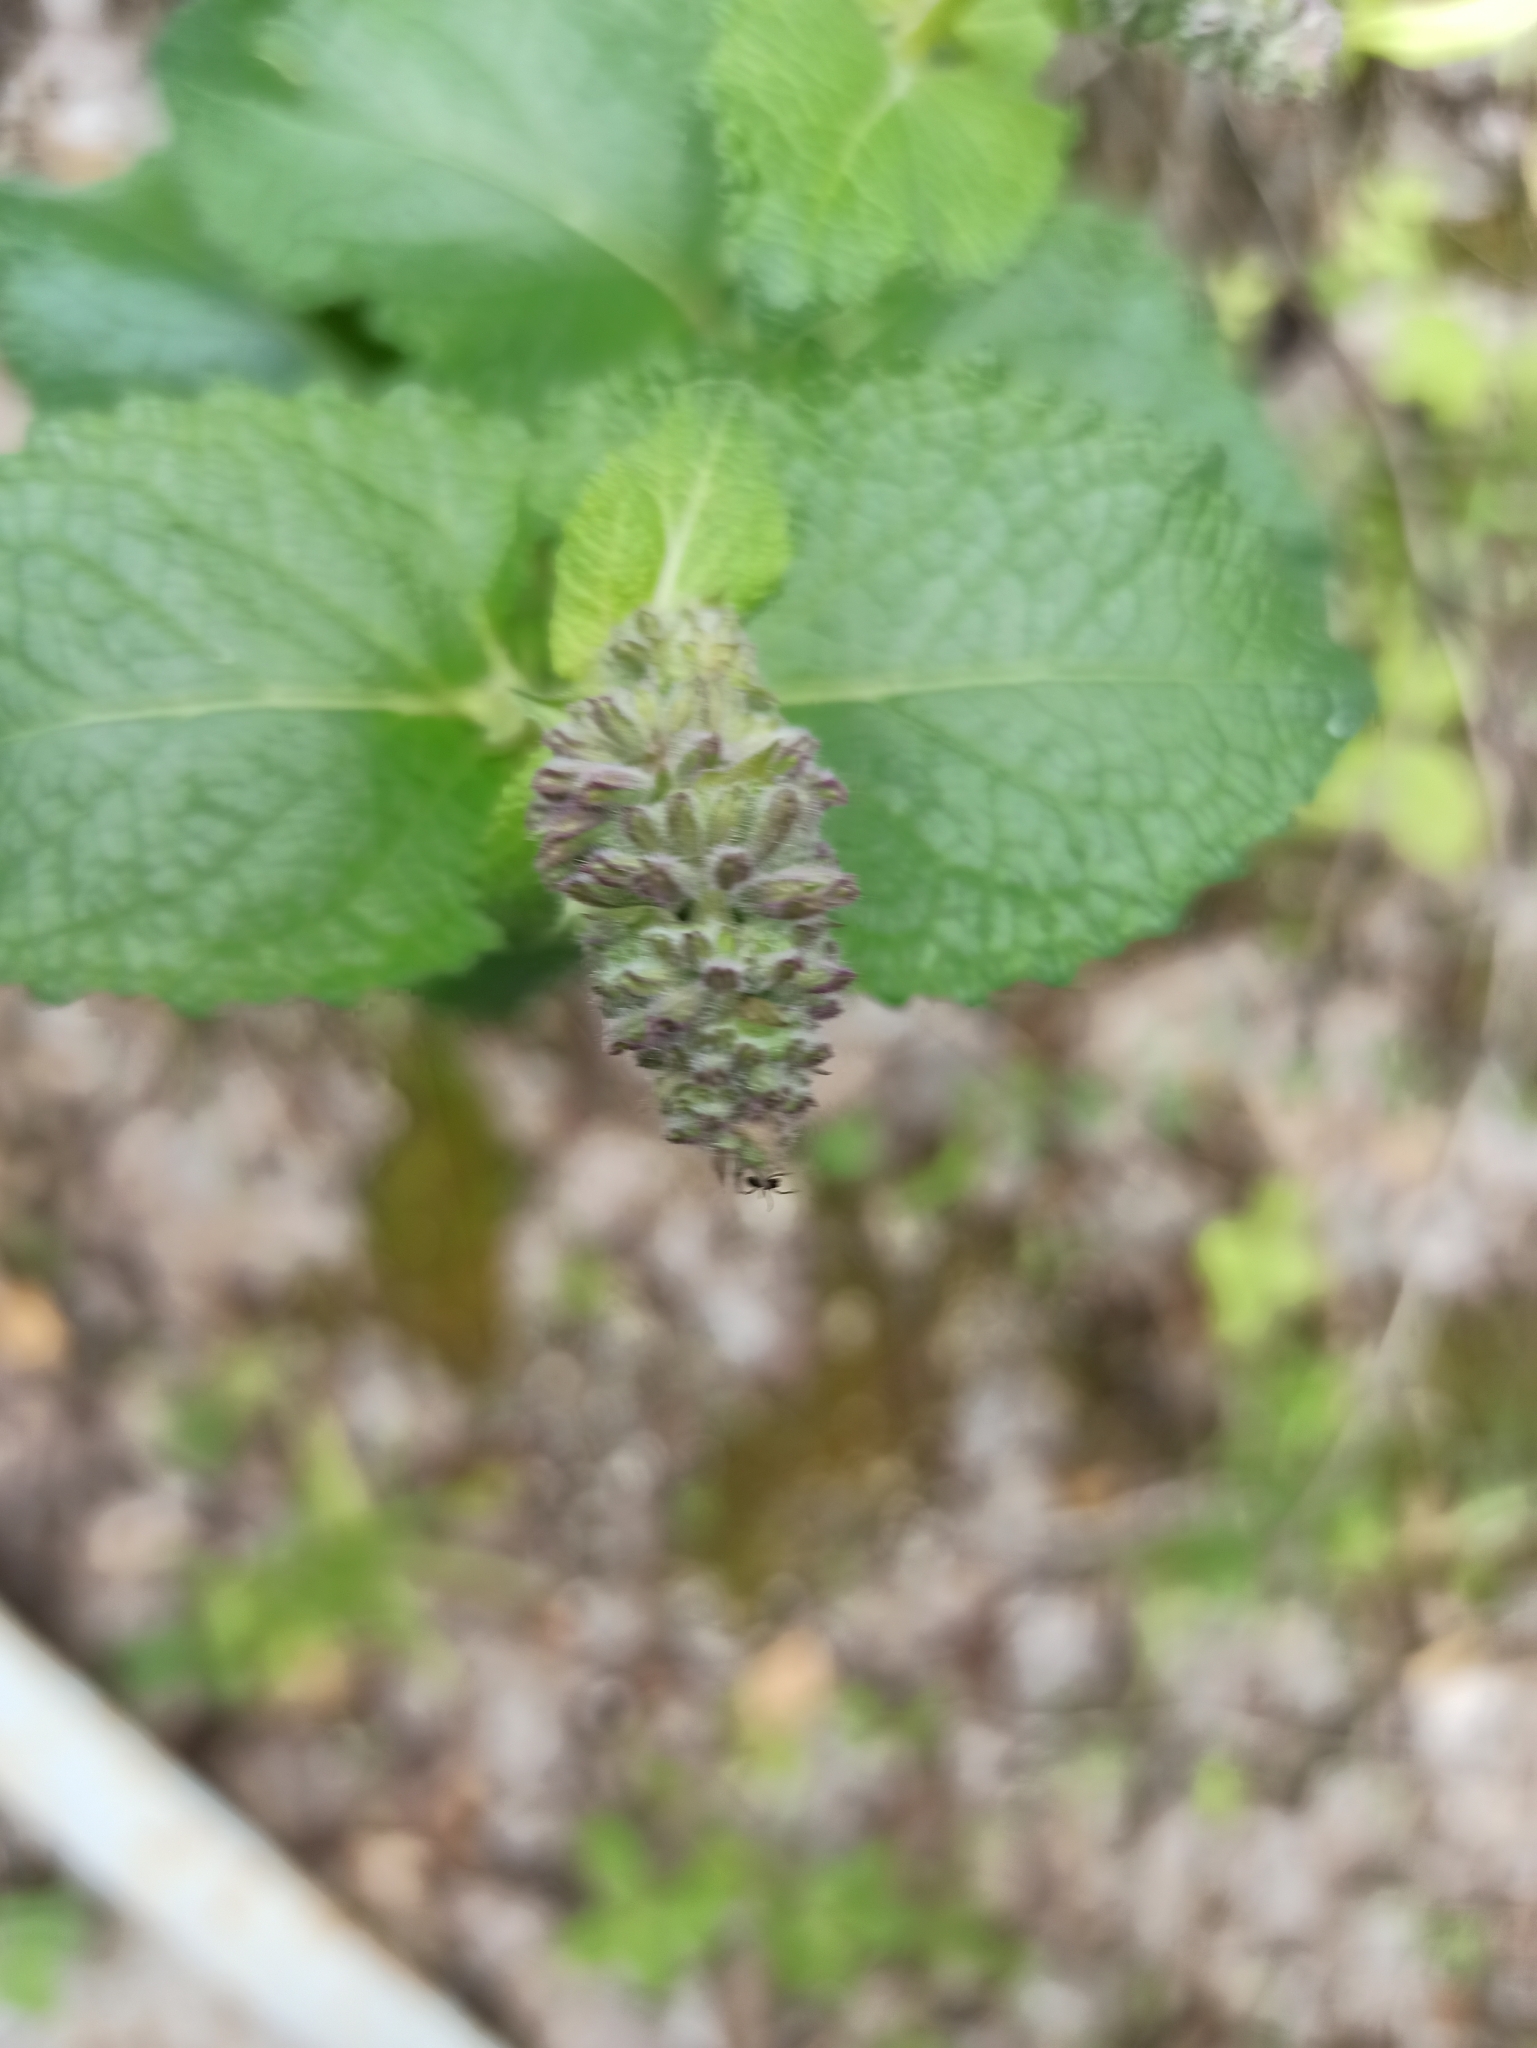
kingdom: Plantae
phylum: Tracheophyta
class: Magnoliopsida
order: Lamiales
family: Lamiaceae
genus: Salvia
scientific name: Salvia verticillata
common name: Whorled clary
